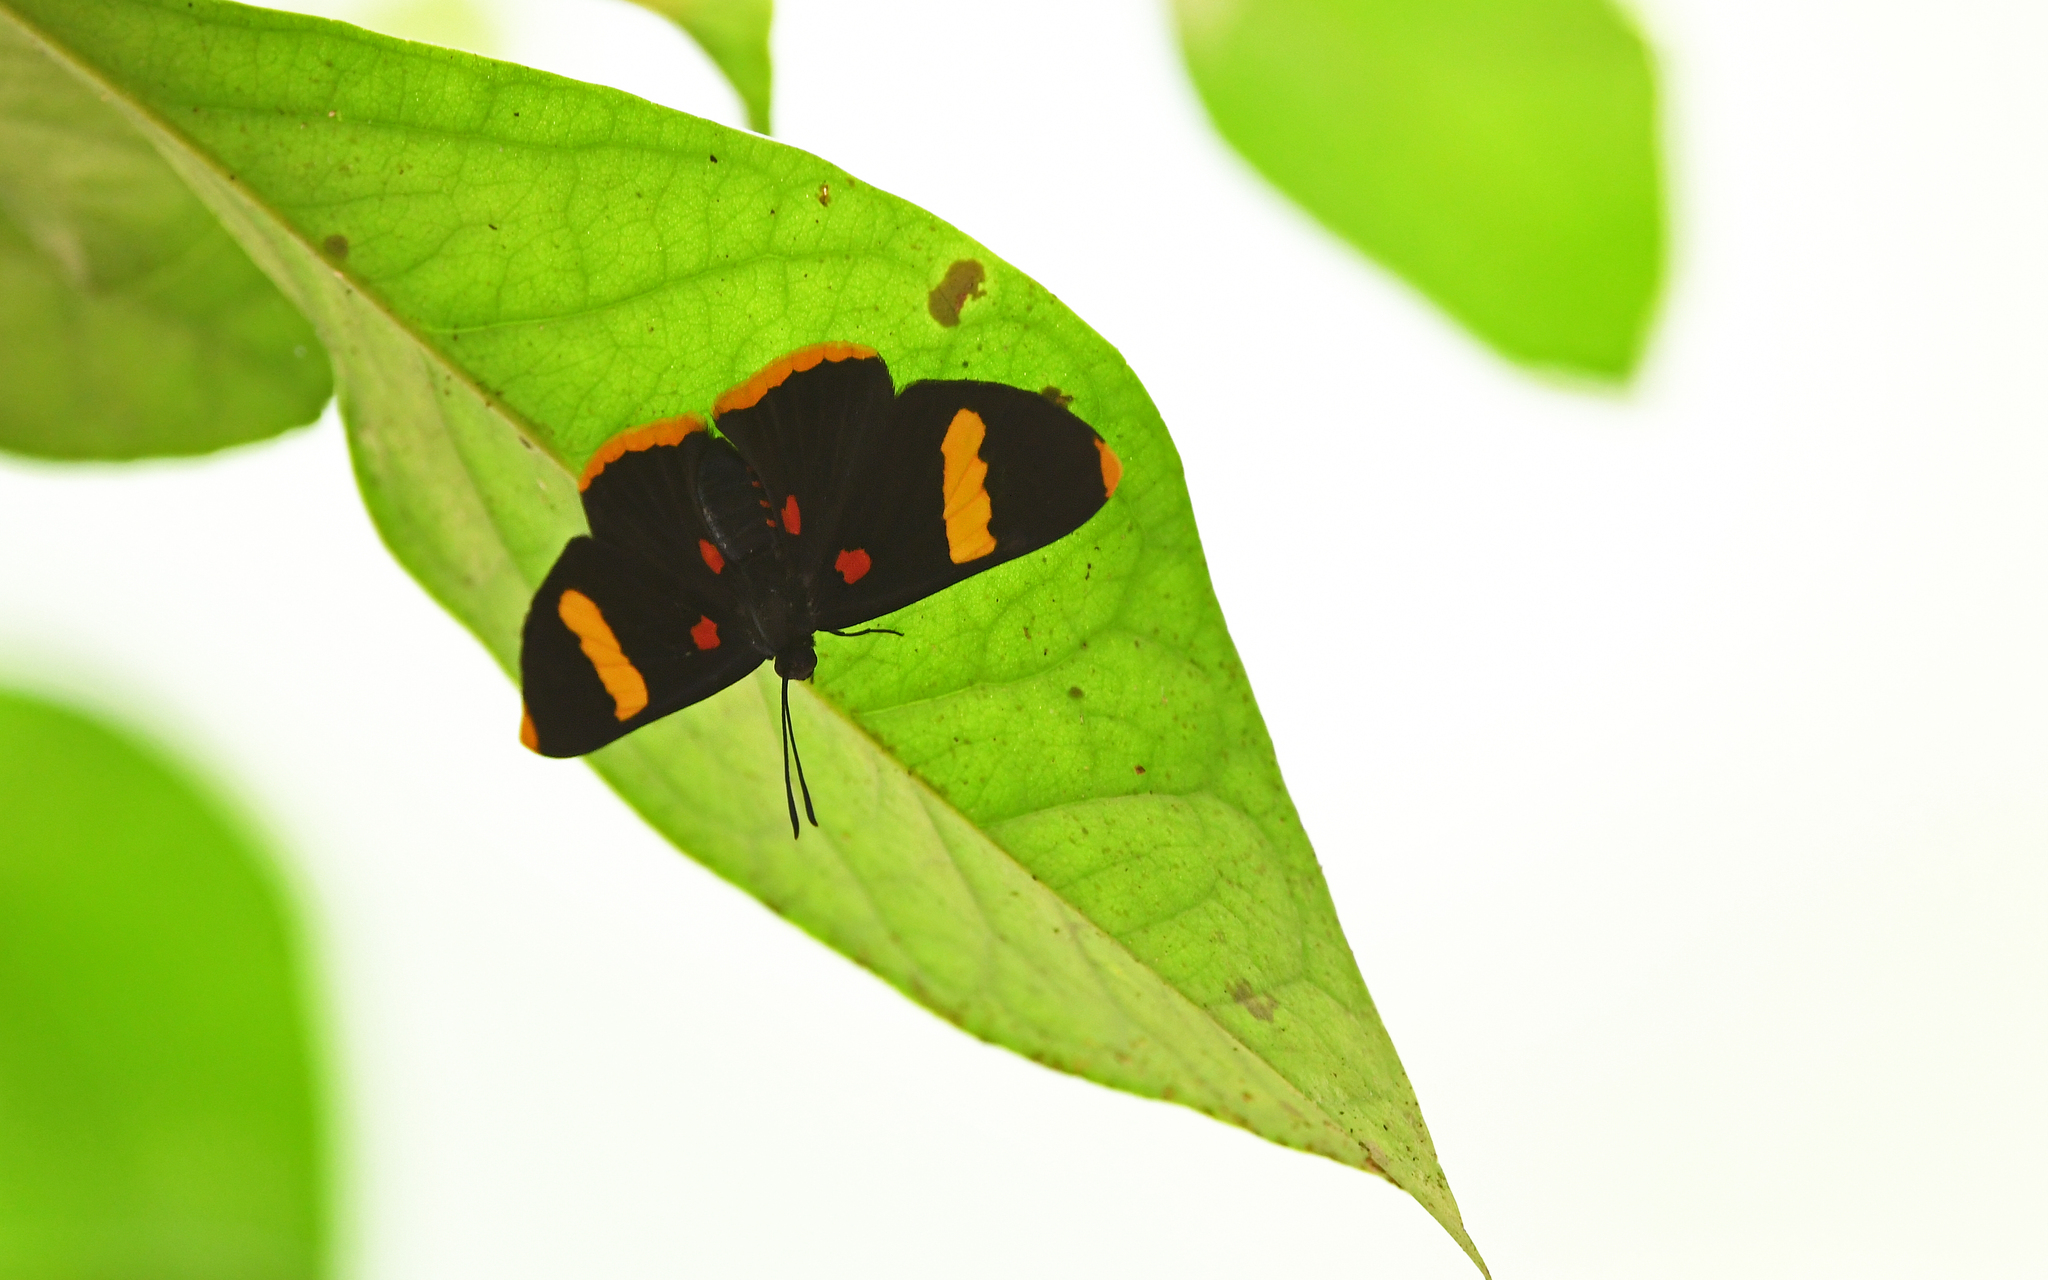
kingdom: Animalia
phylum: Arthropoda
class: Insecta
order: Lepidoptera
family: Lycaenidae
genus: Melanis
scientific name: Melanis electron
